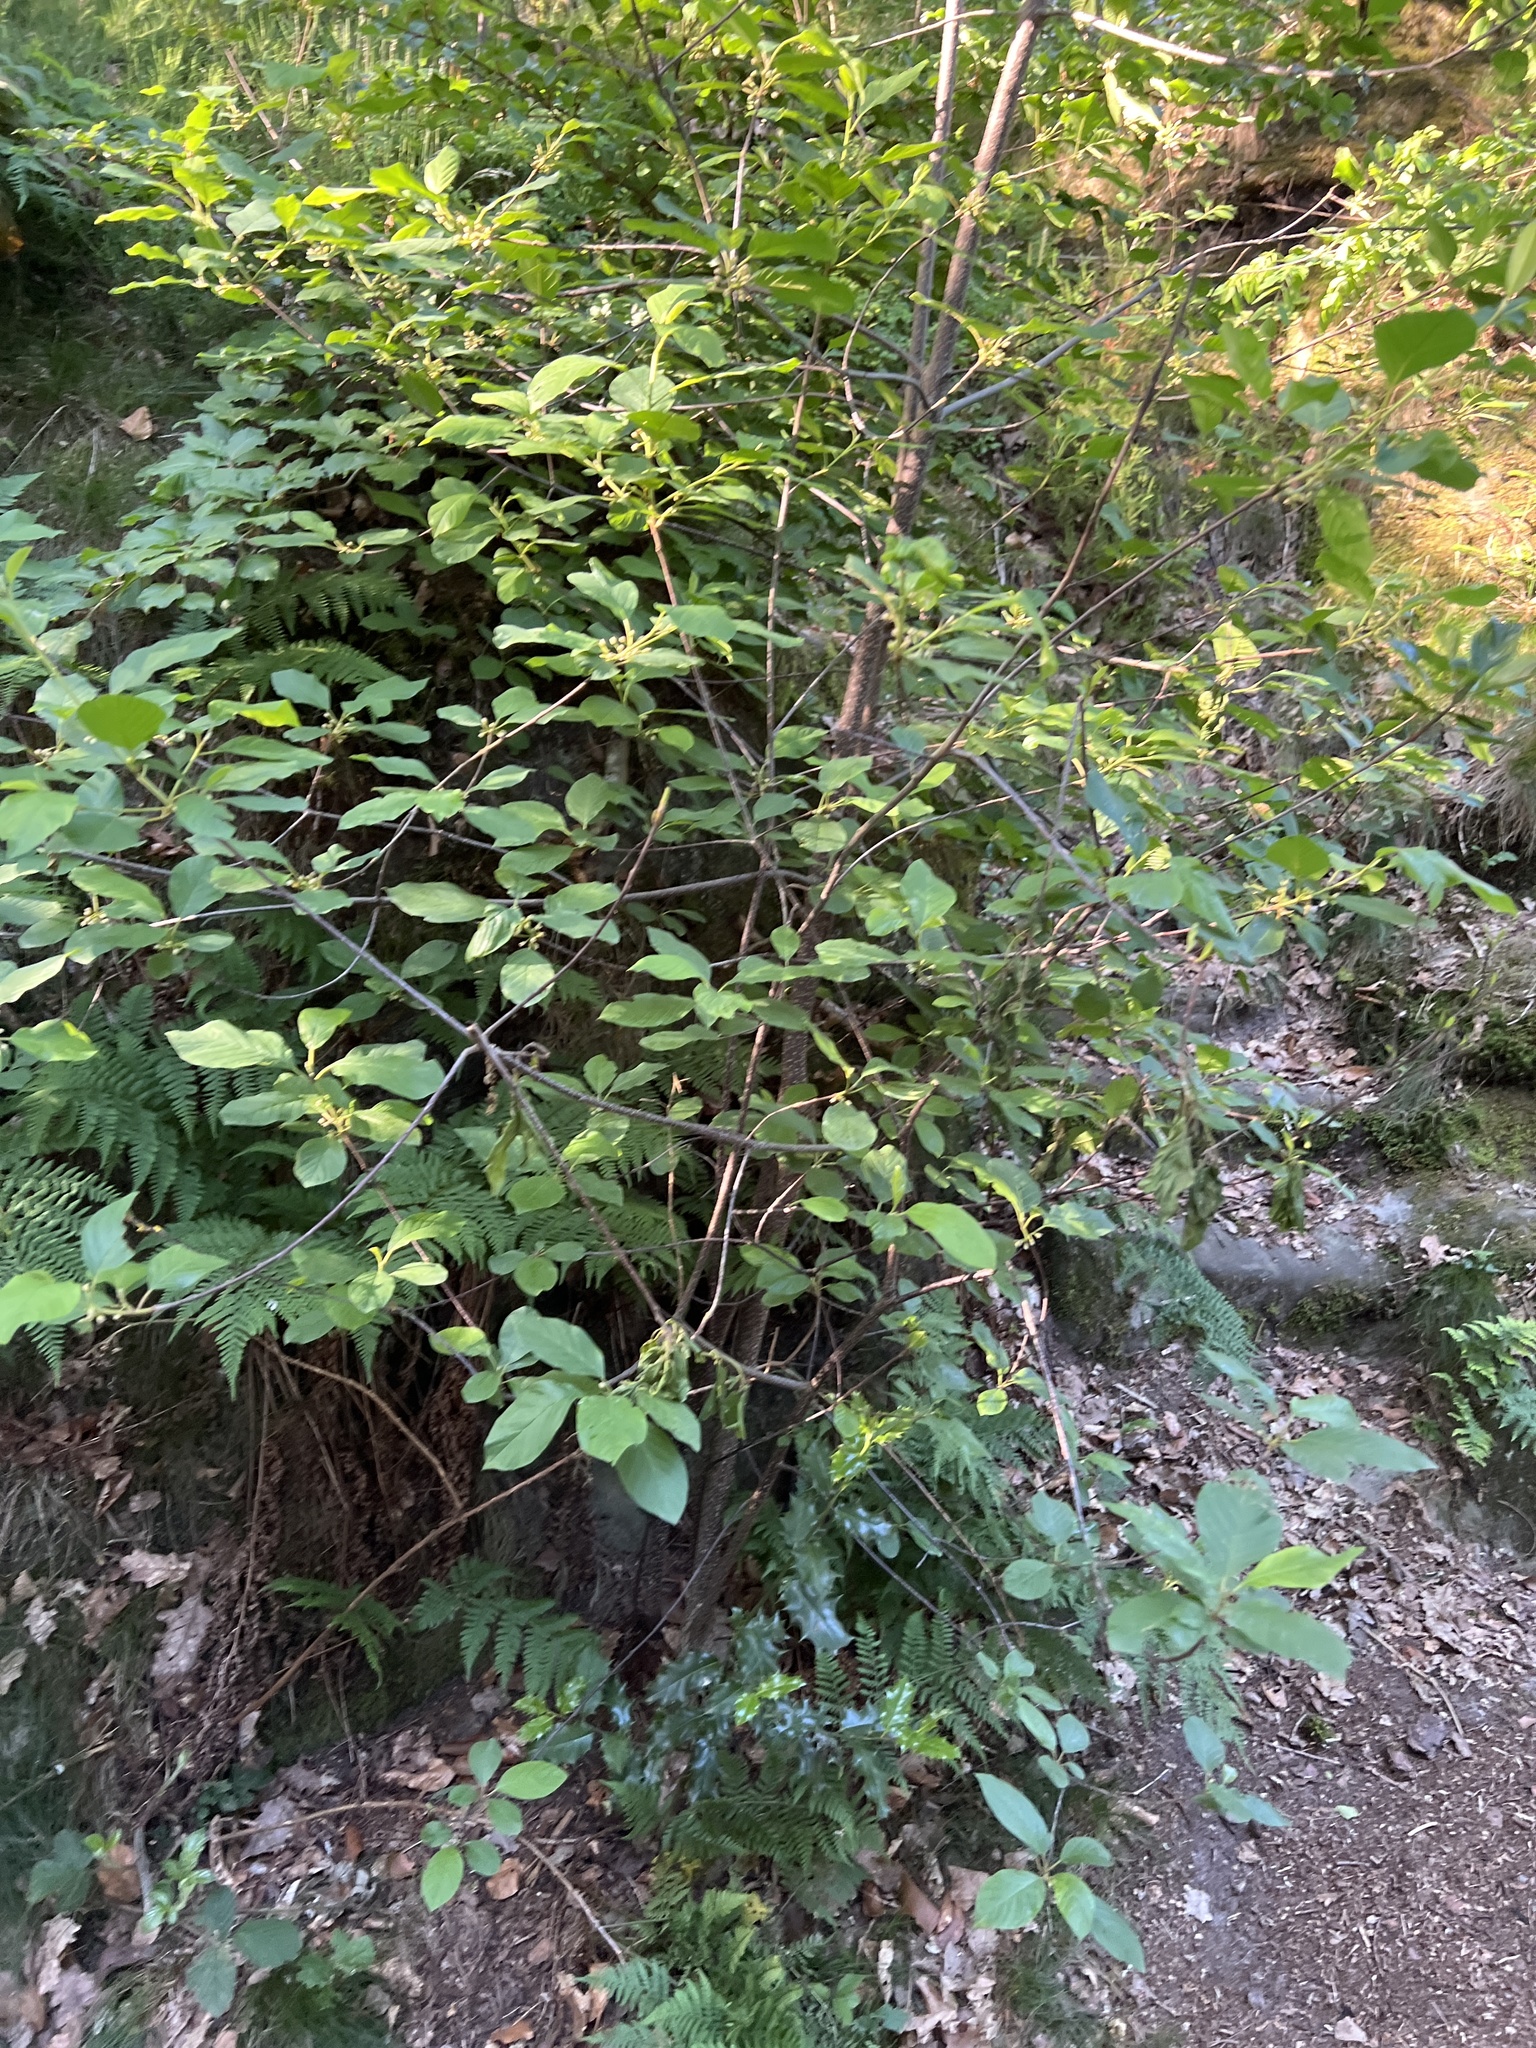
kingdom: Plantae
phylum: Tracheophyta
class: Magnoliopsida
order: Rosales
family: Rhamnaceae
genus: Frangula
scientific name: Frangula alnus
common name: Alder buckthorn
